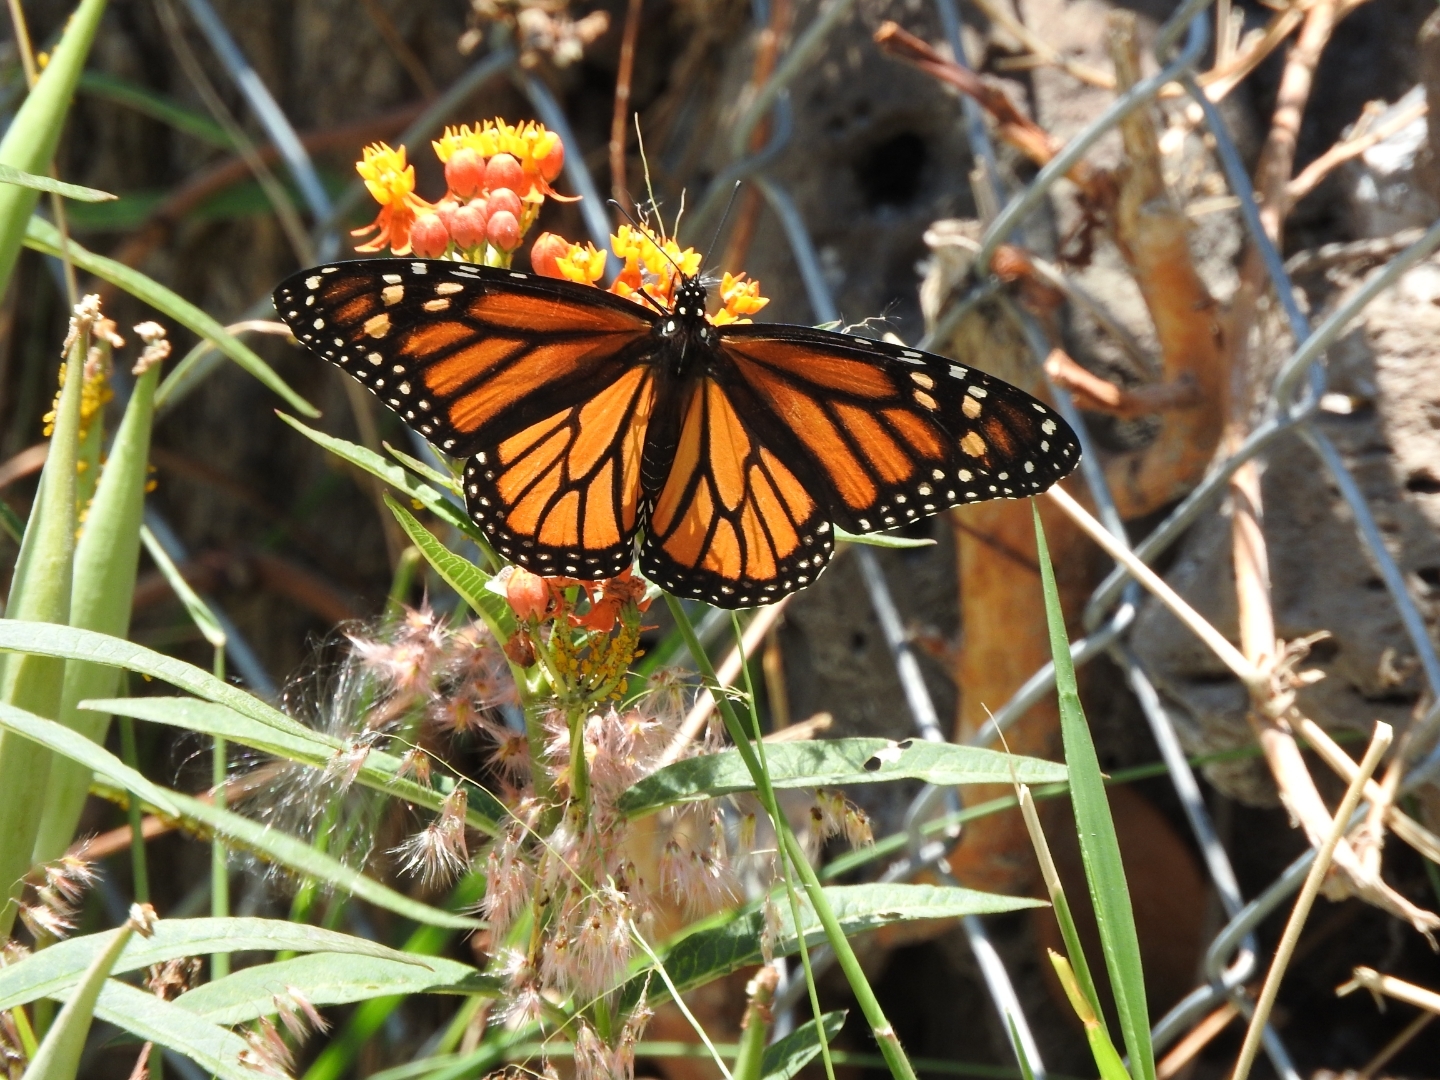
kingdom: Plantae
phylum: Tracheophyta
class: Magnoliopsida
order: Gentianales
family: Apocynaceae
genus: Asclepias
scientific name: Asclepias curassavica
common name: Bloodflower
